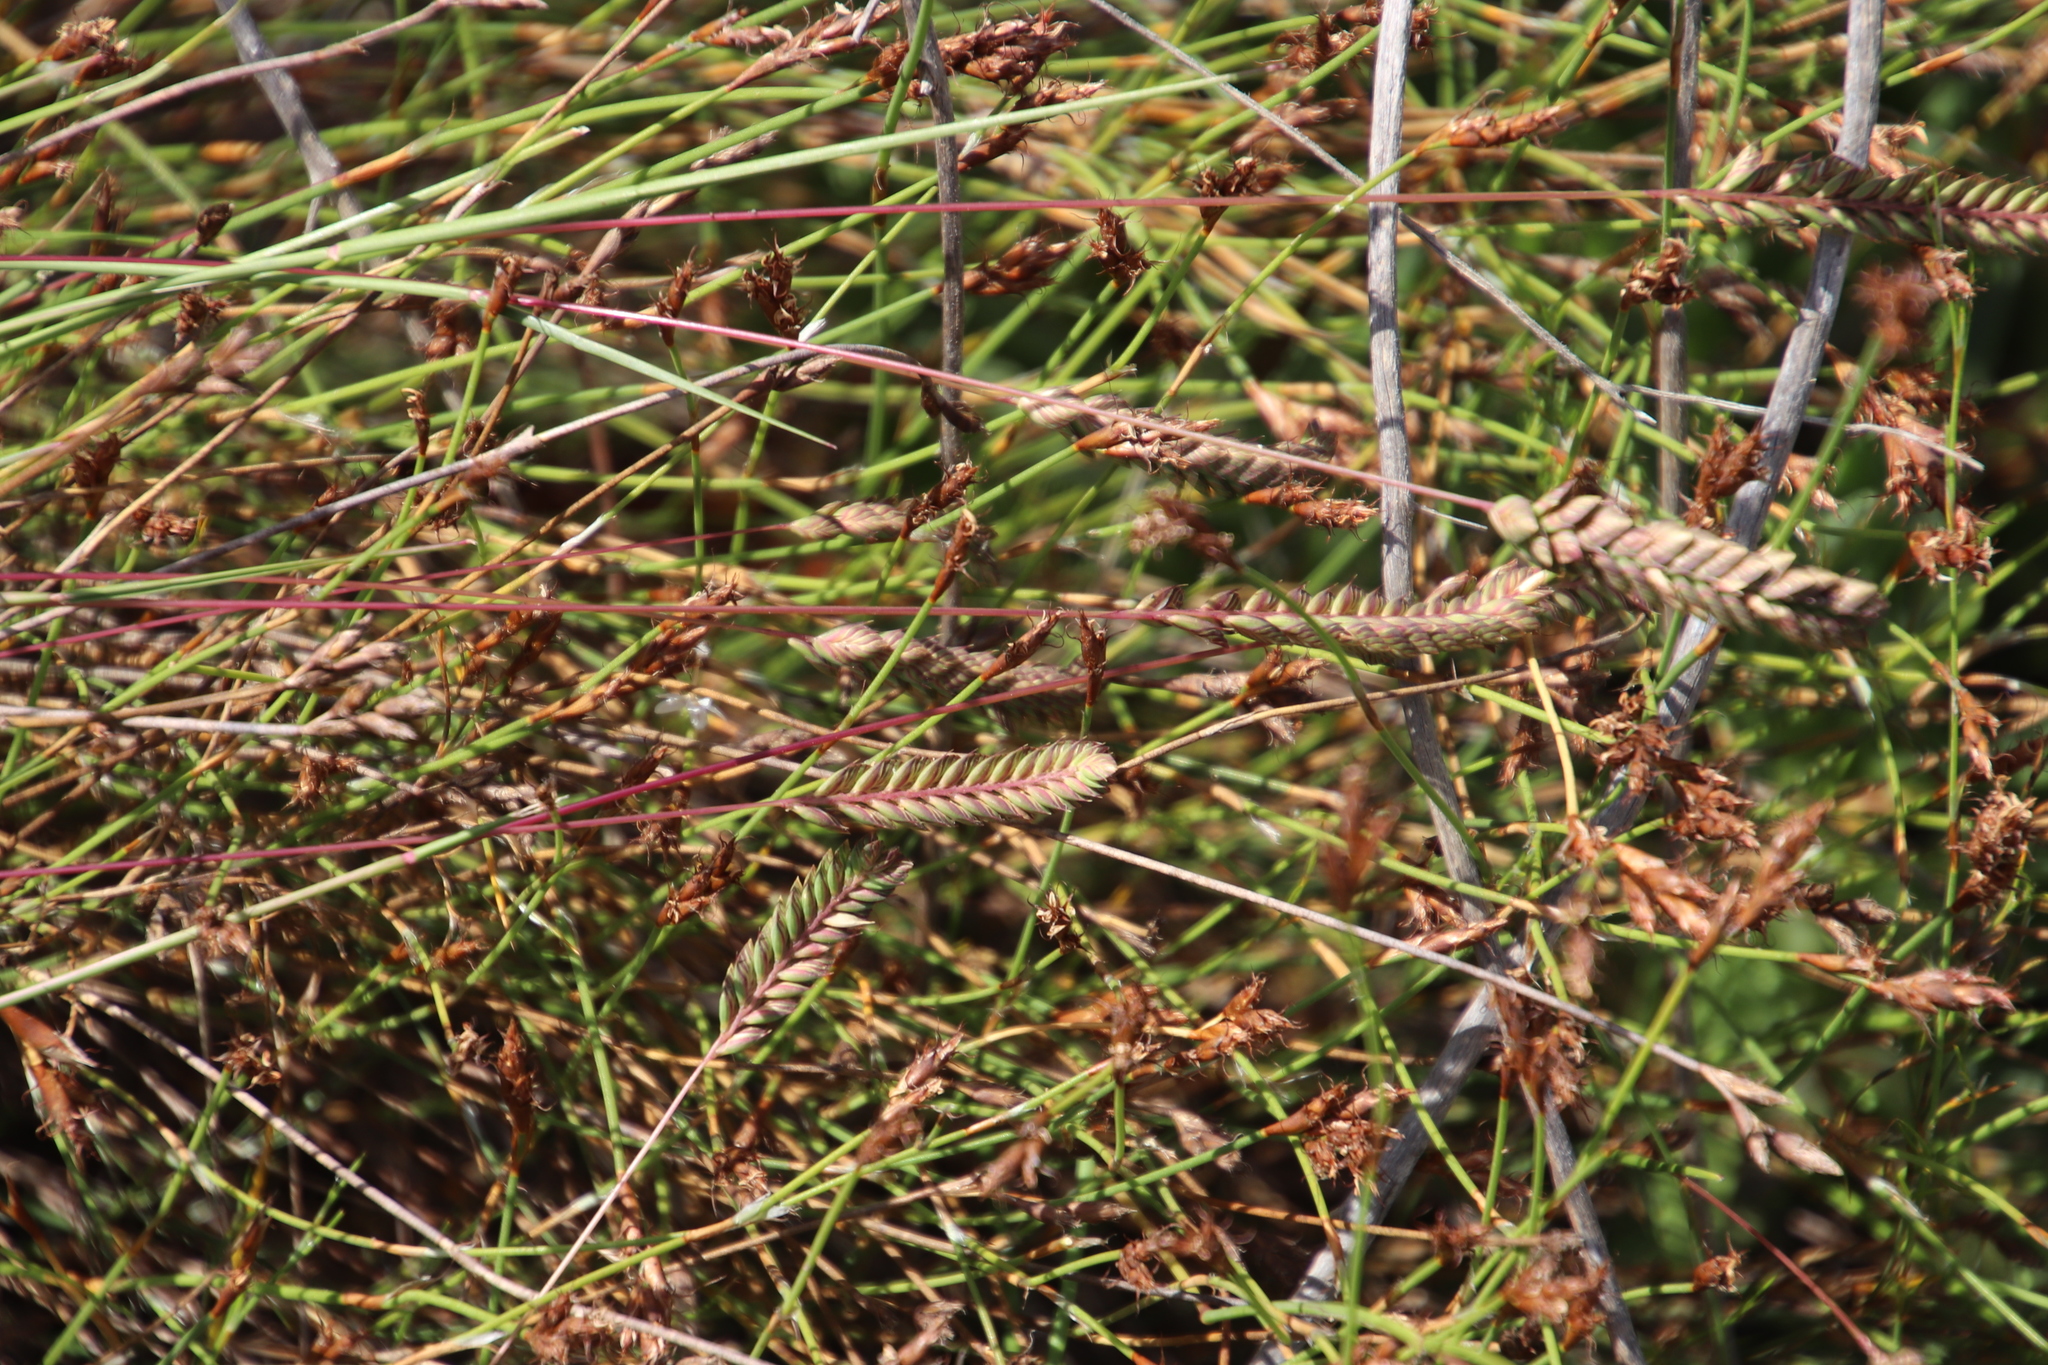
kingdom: Plantae
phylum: Tracheophyta
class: Liliopsida
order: Poales
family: Poaceae
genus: Tribolium
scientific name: Tribolium uniolae
